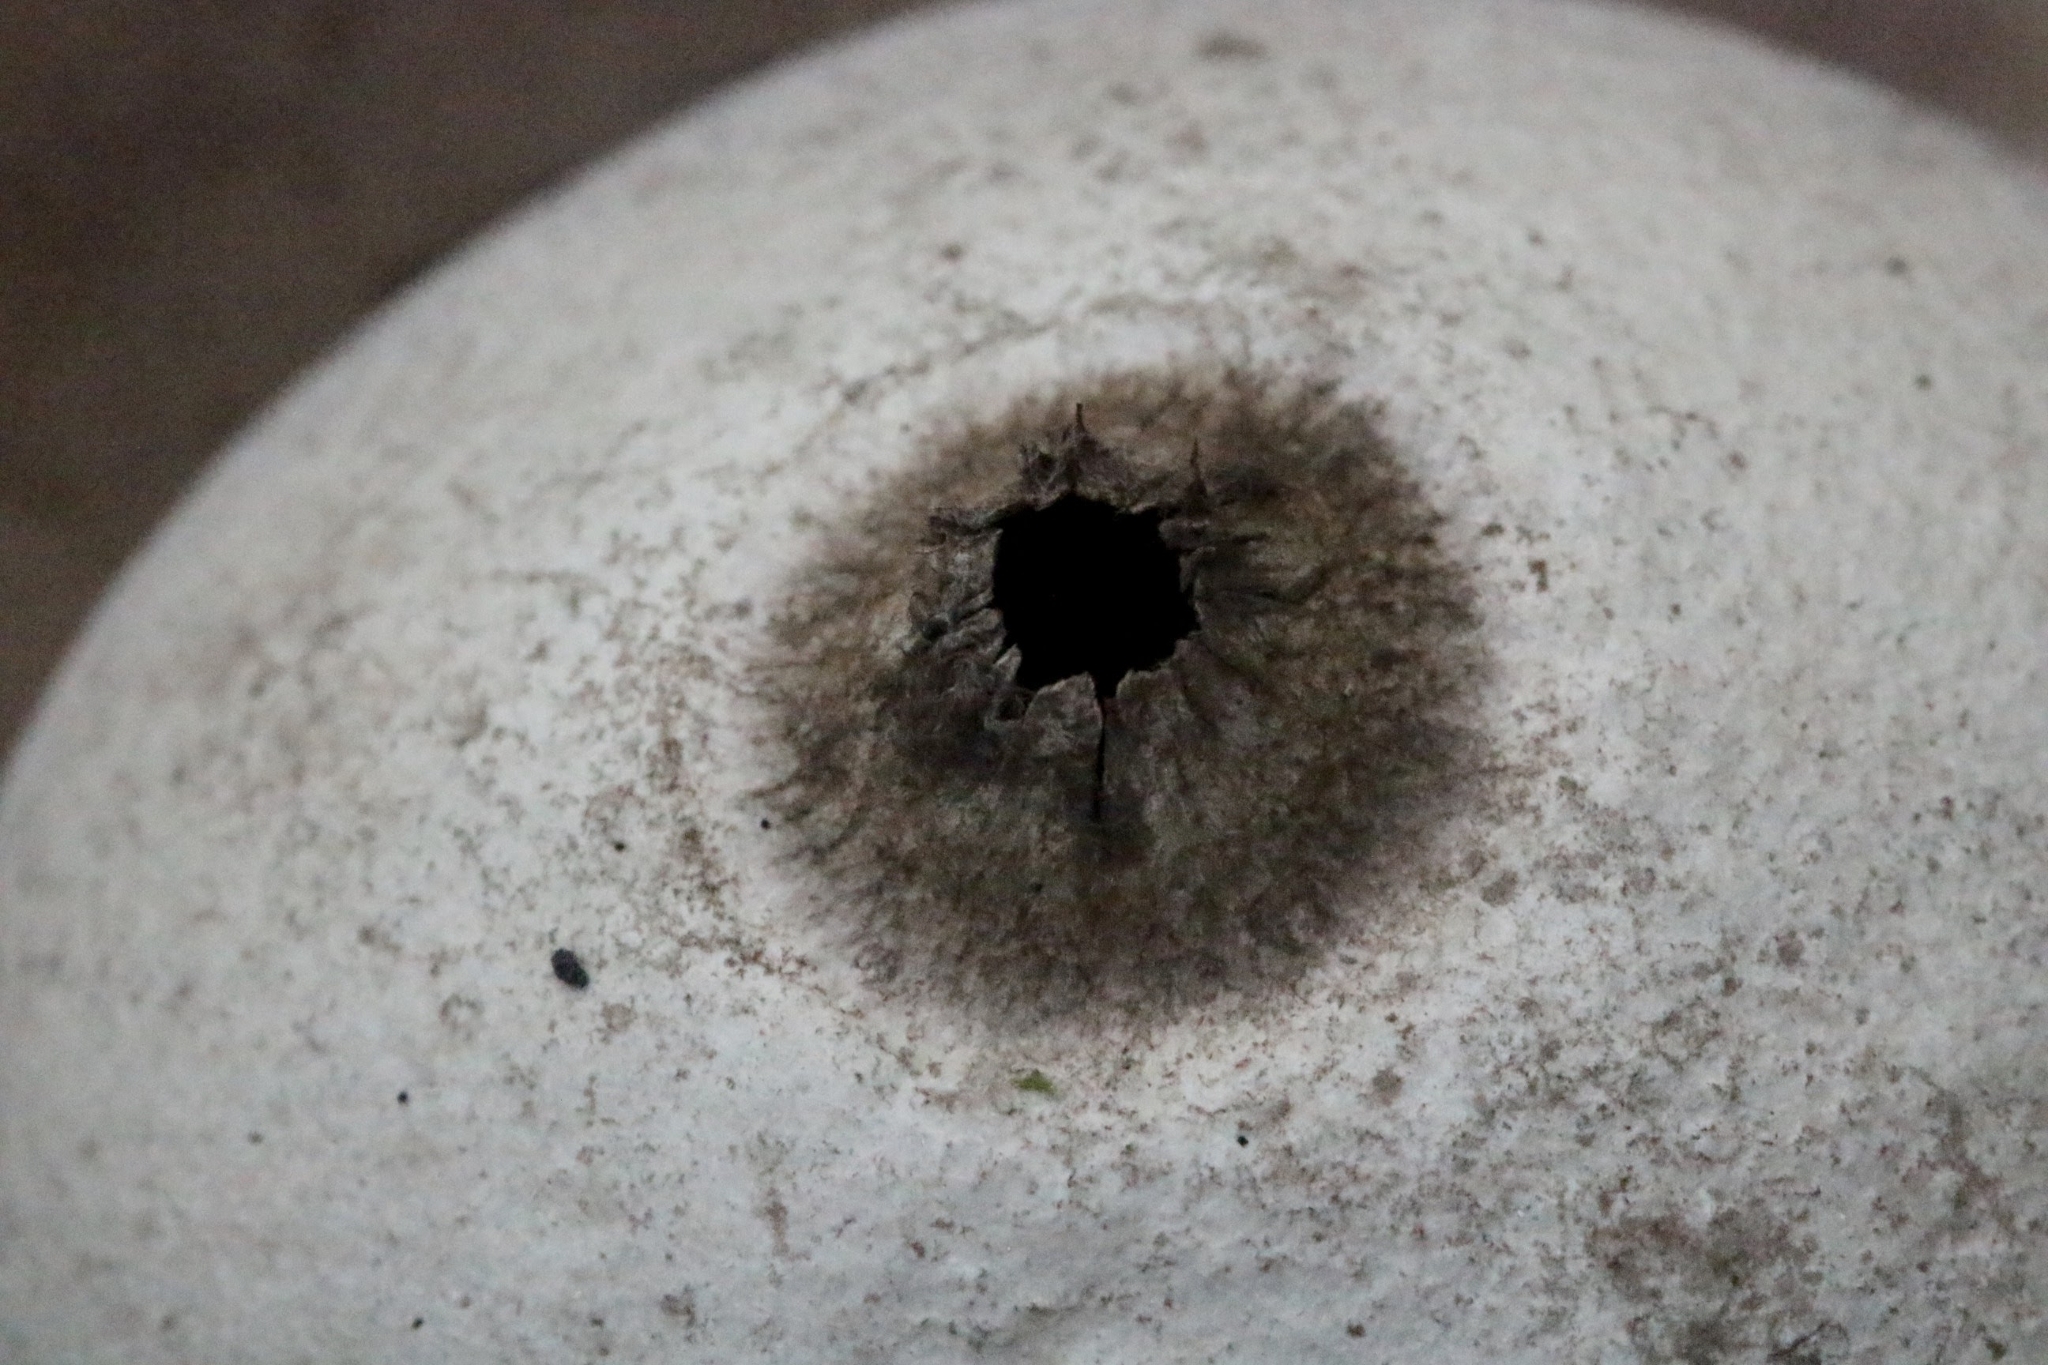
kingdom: Fungi
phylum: Basidiomycota
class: Agaricomycetes
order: Geastrales
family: Geastraceae
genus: Geastrum
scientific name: Geastrum triplex
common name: Collared earthstar
